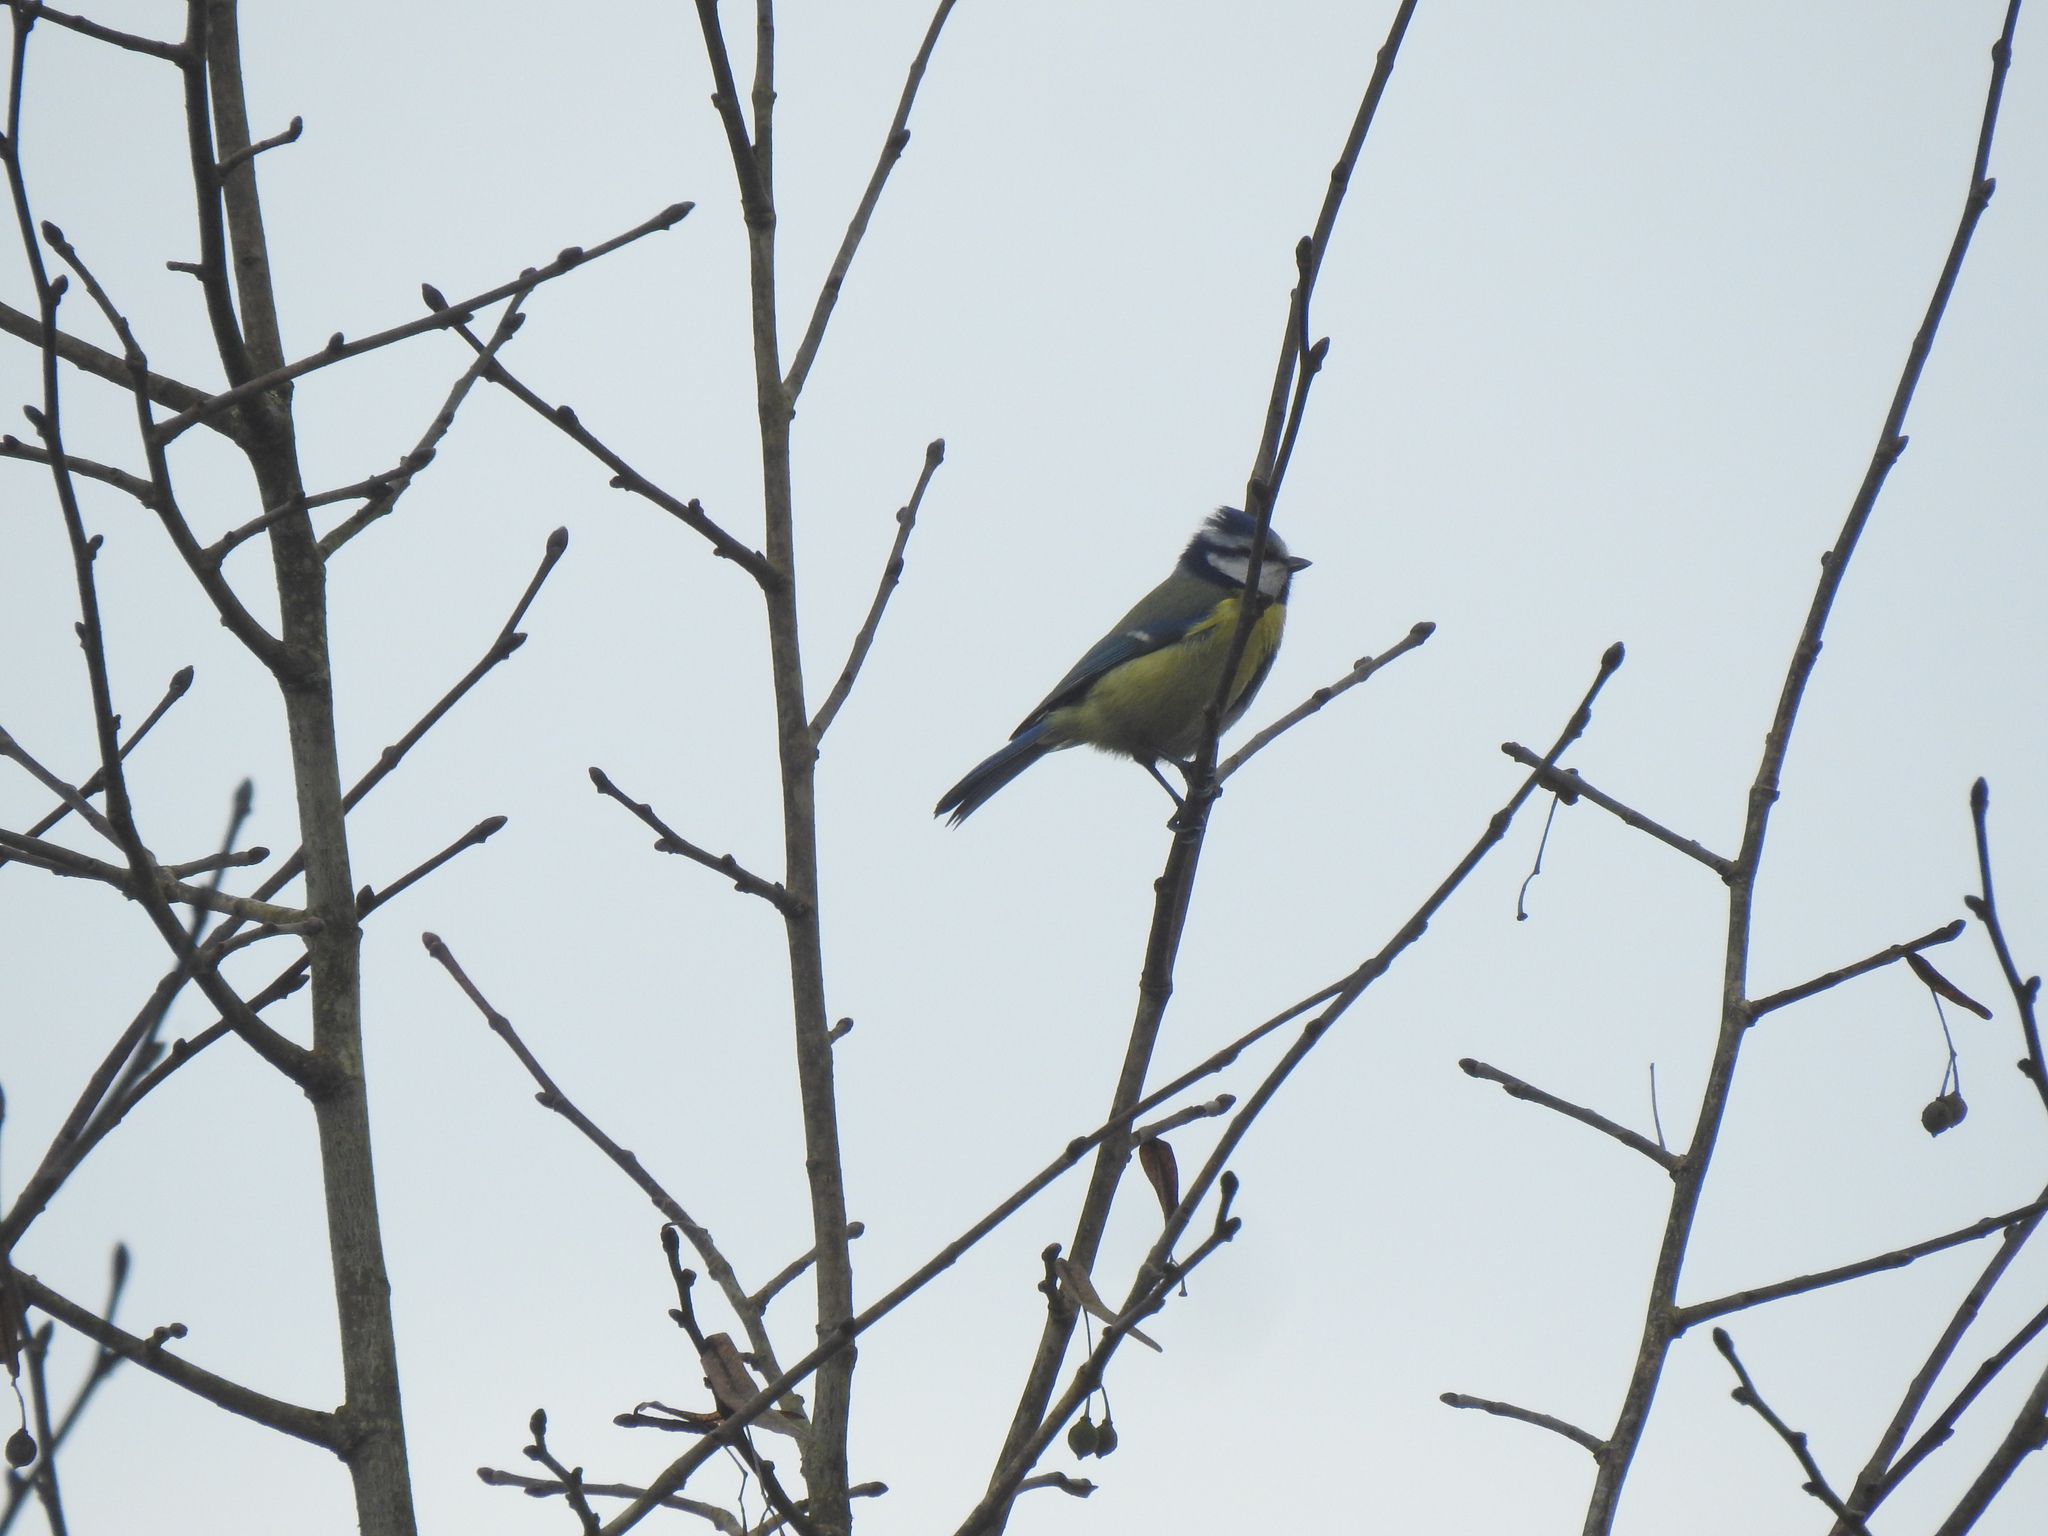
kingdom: Animalia
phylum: Chordata
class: Aves
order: Passeriformes
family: Paridae
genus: Cyanistes
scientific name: Cyanistes caeruleus
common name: Eurasian blue tit
